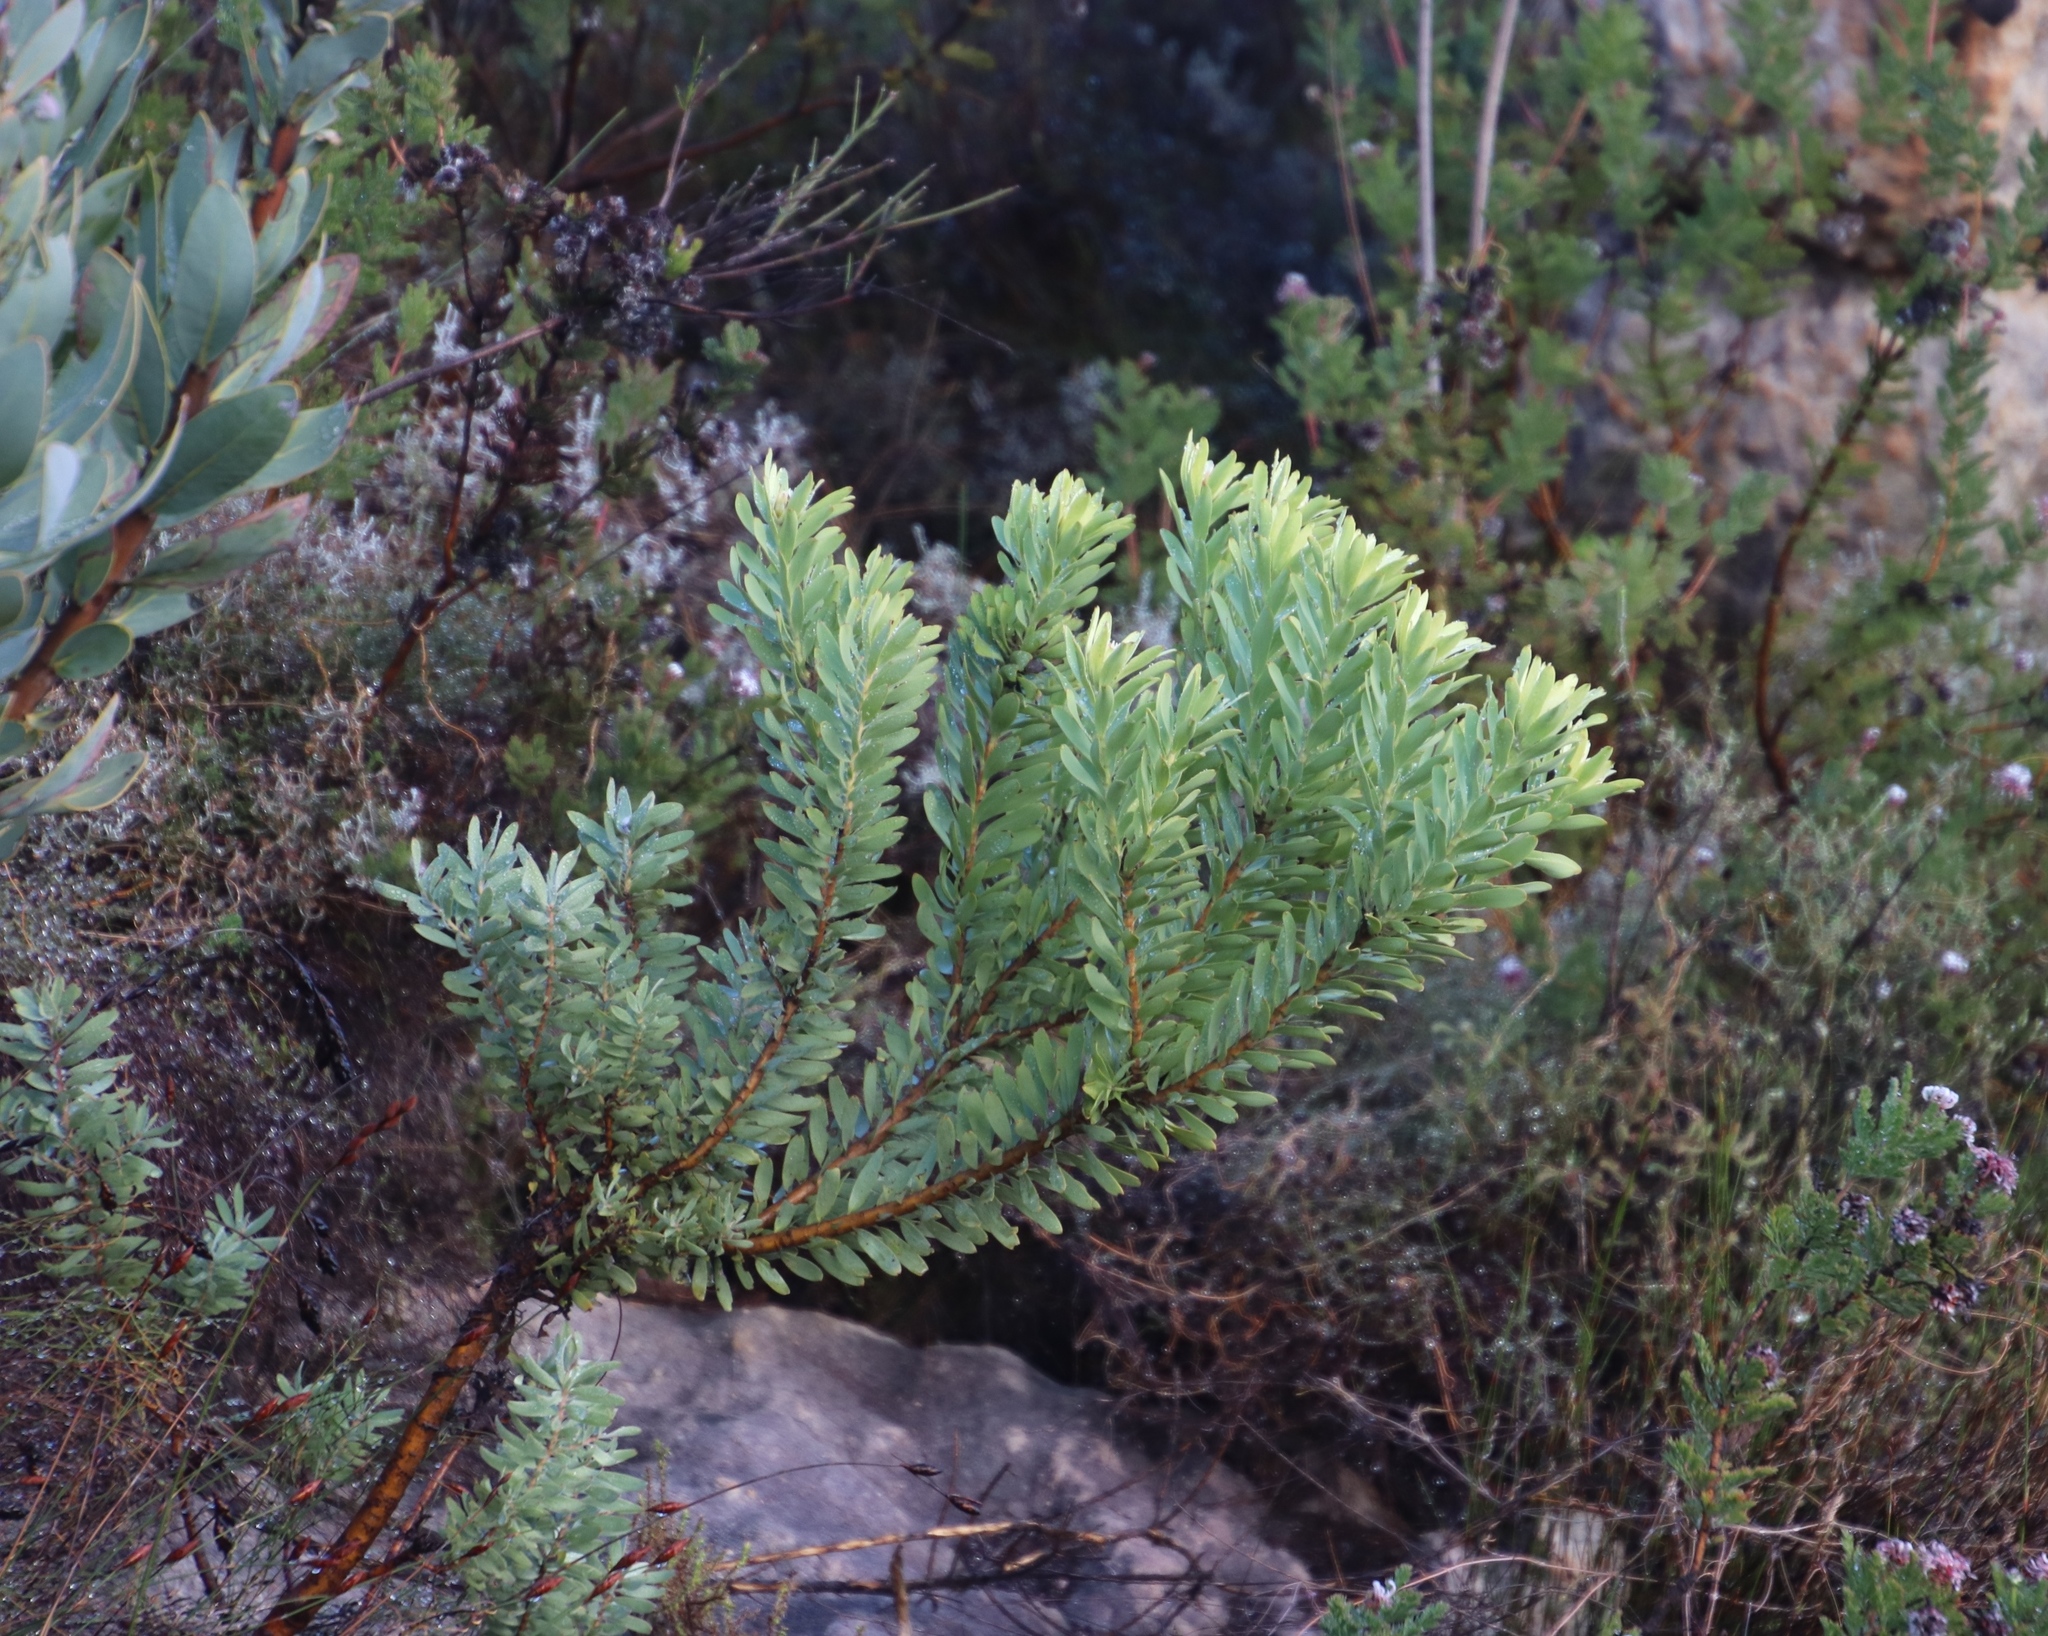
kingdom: Plantae
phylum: Tracheophyta
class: Magnoliopsida
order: Proteales
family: Proteaceae
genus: Leucadendron
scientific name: Leucadendron pubescens
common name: Grey conebush
